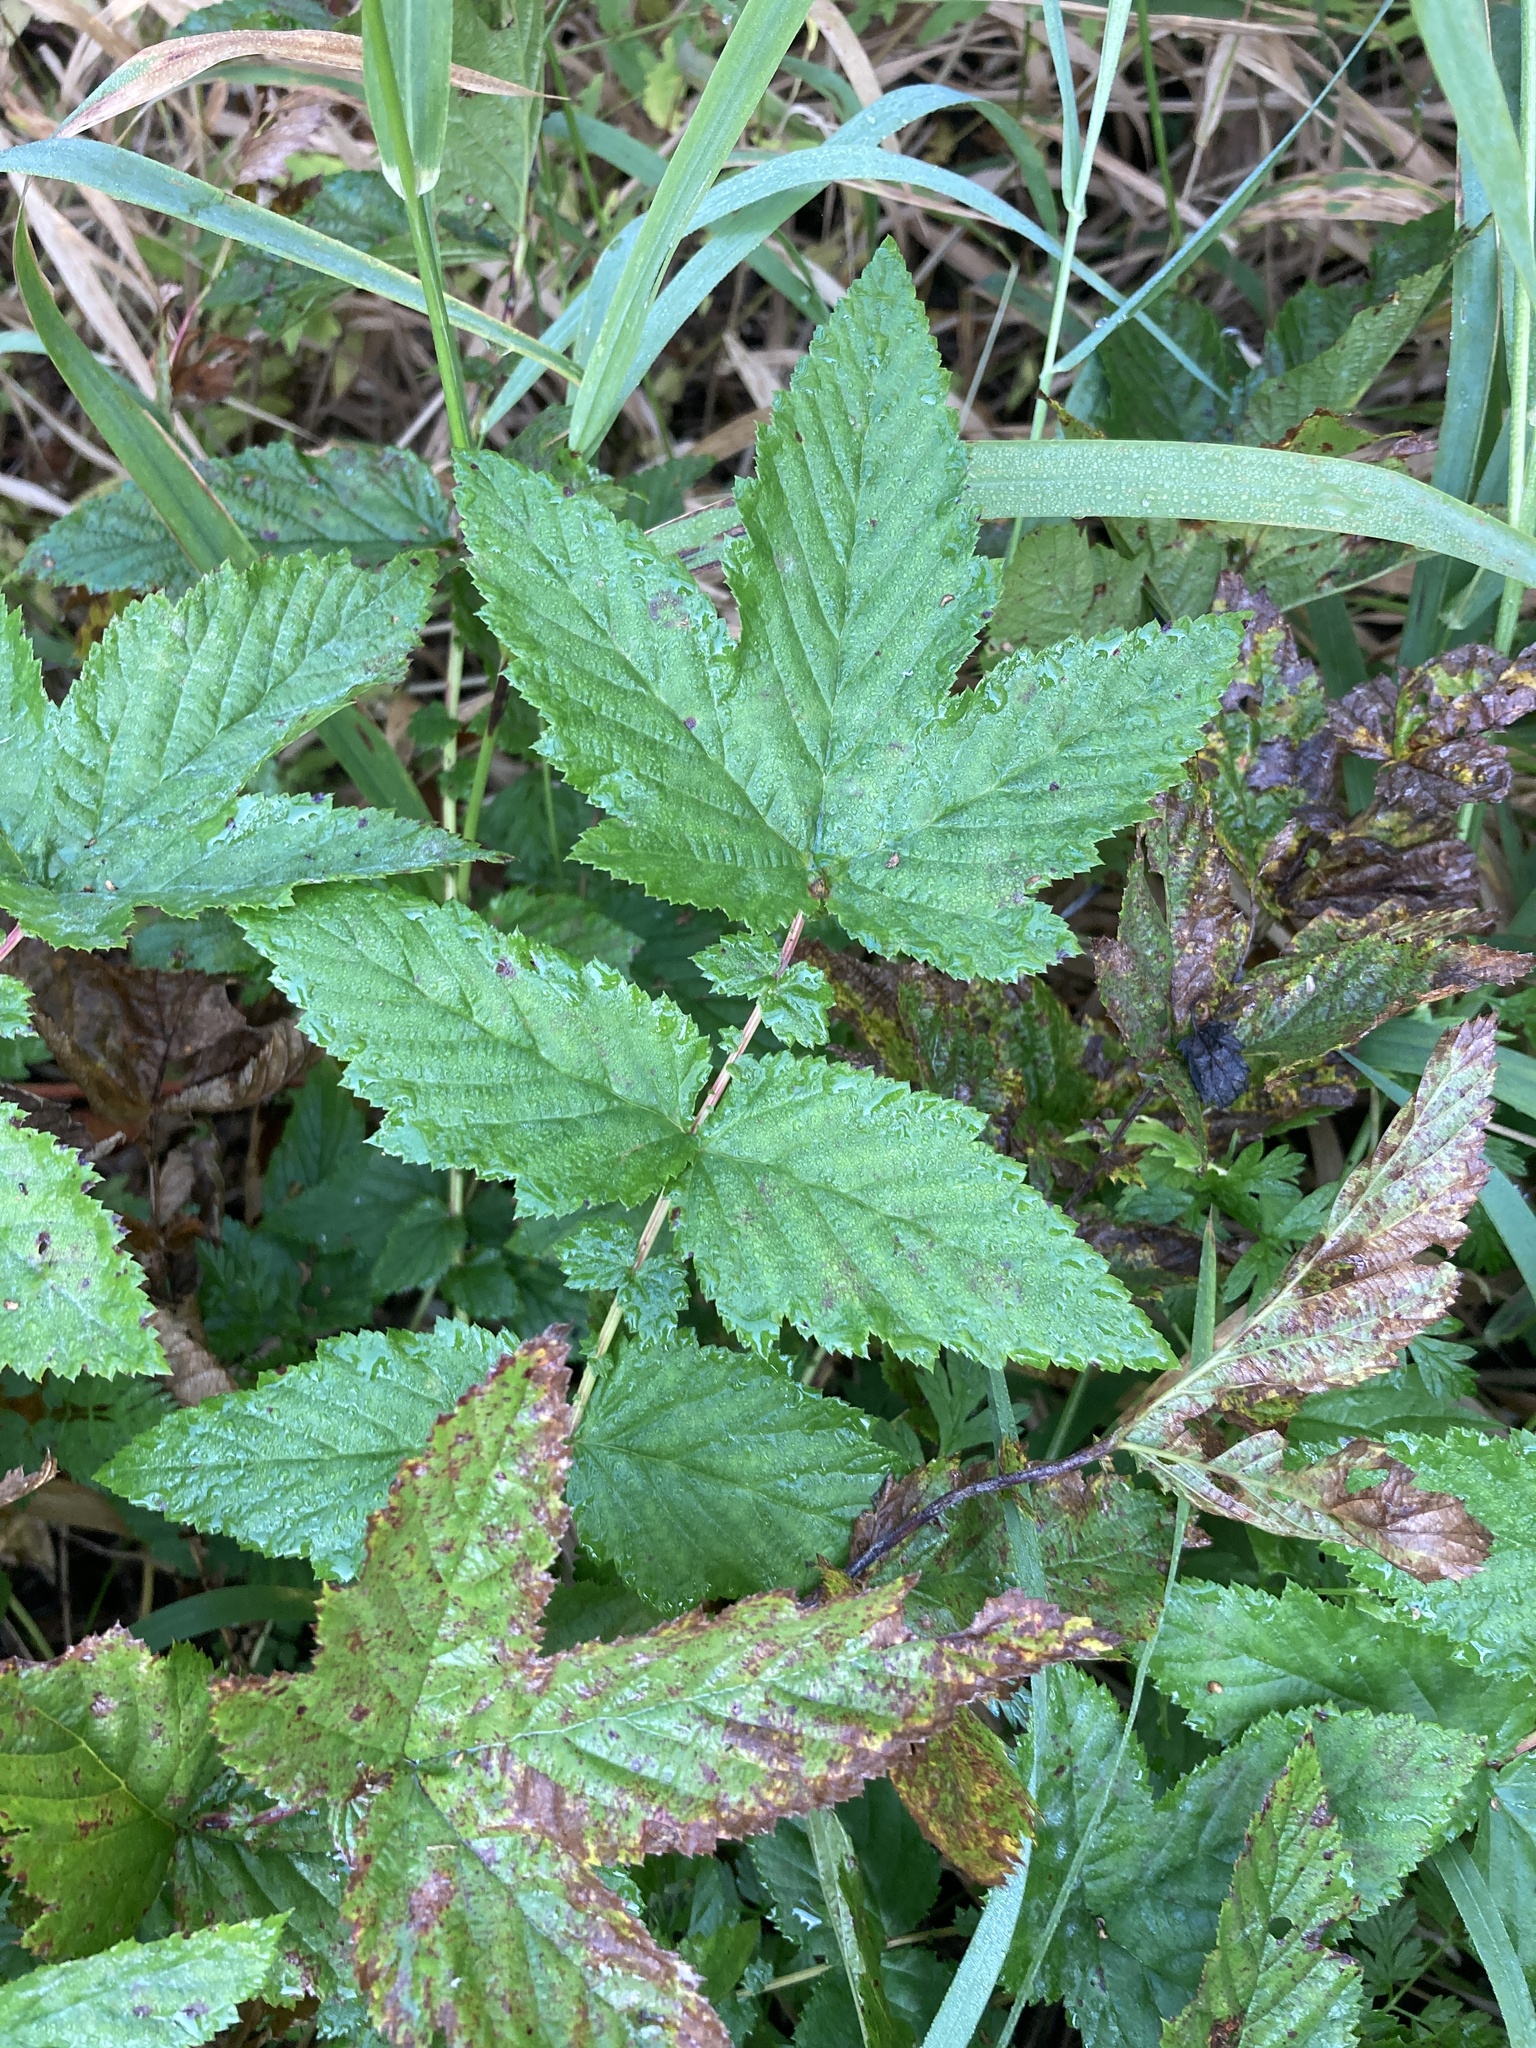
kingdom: Plantae
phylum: Tracheophyta
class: Magnoliopsida
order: Rosales
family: Rosaceae
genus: Filipendula
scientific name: Filipendula ulmaria
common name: Meadowsweet
